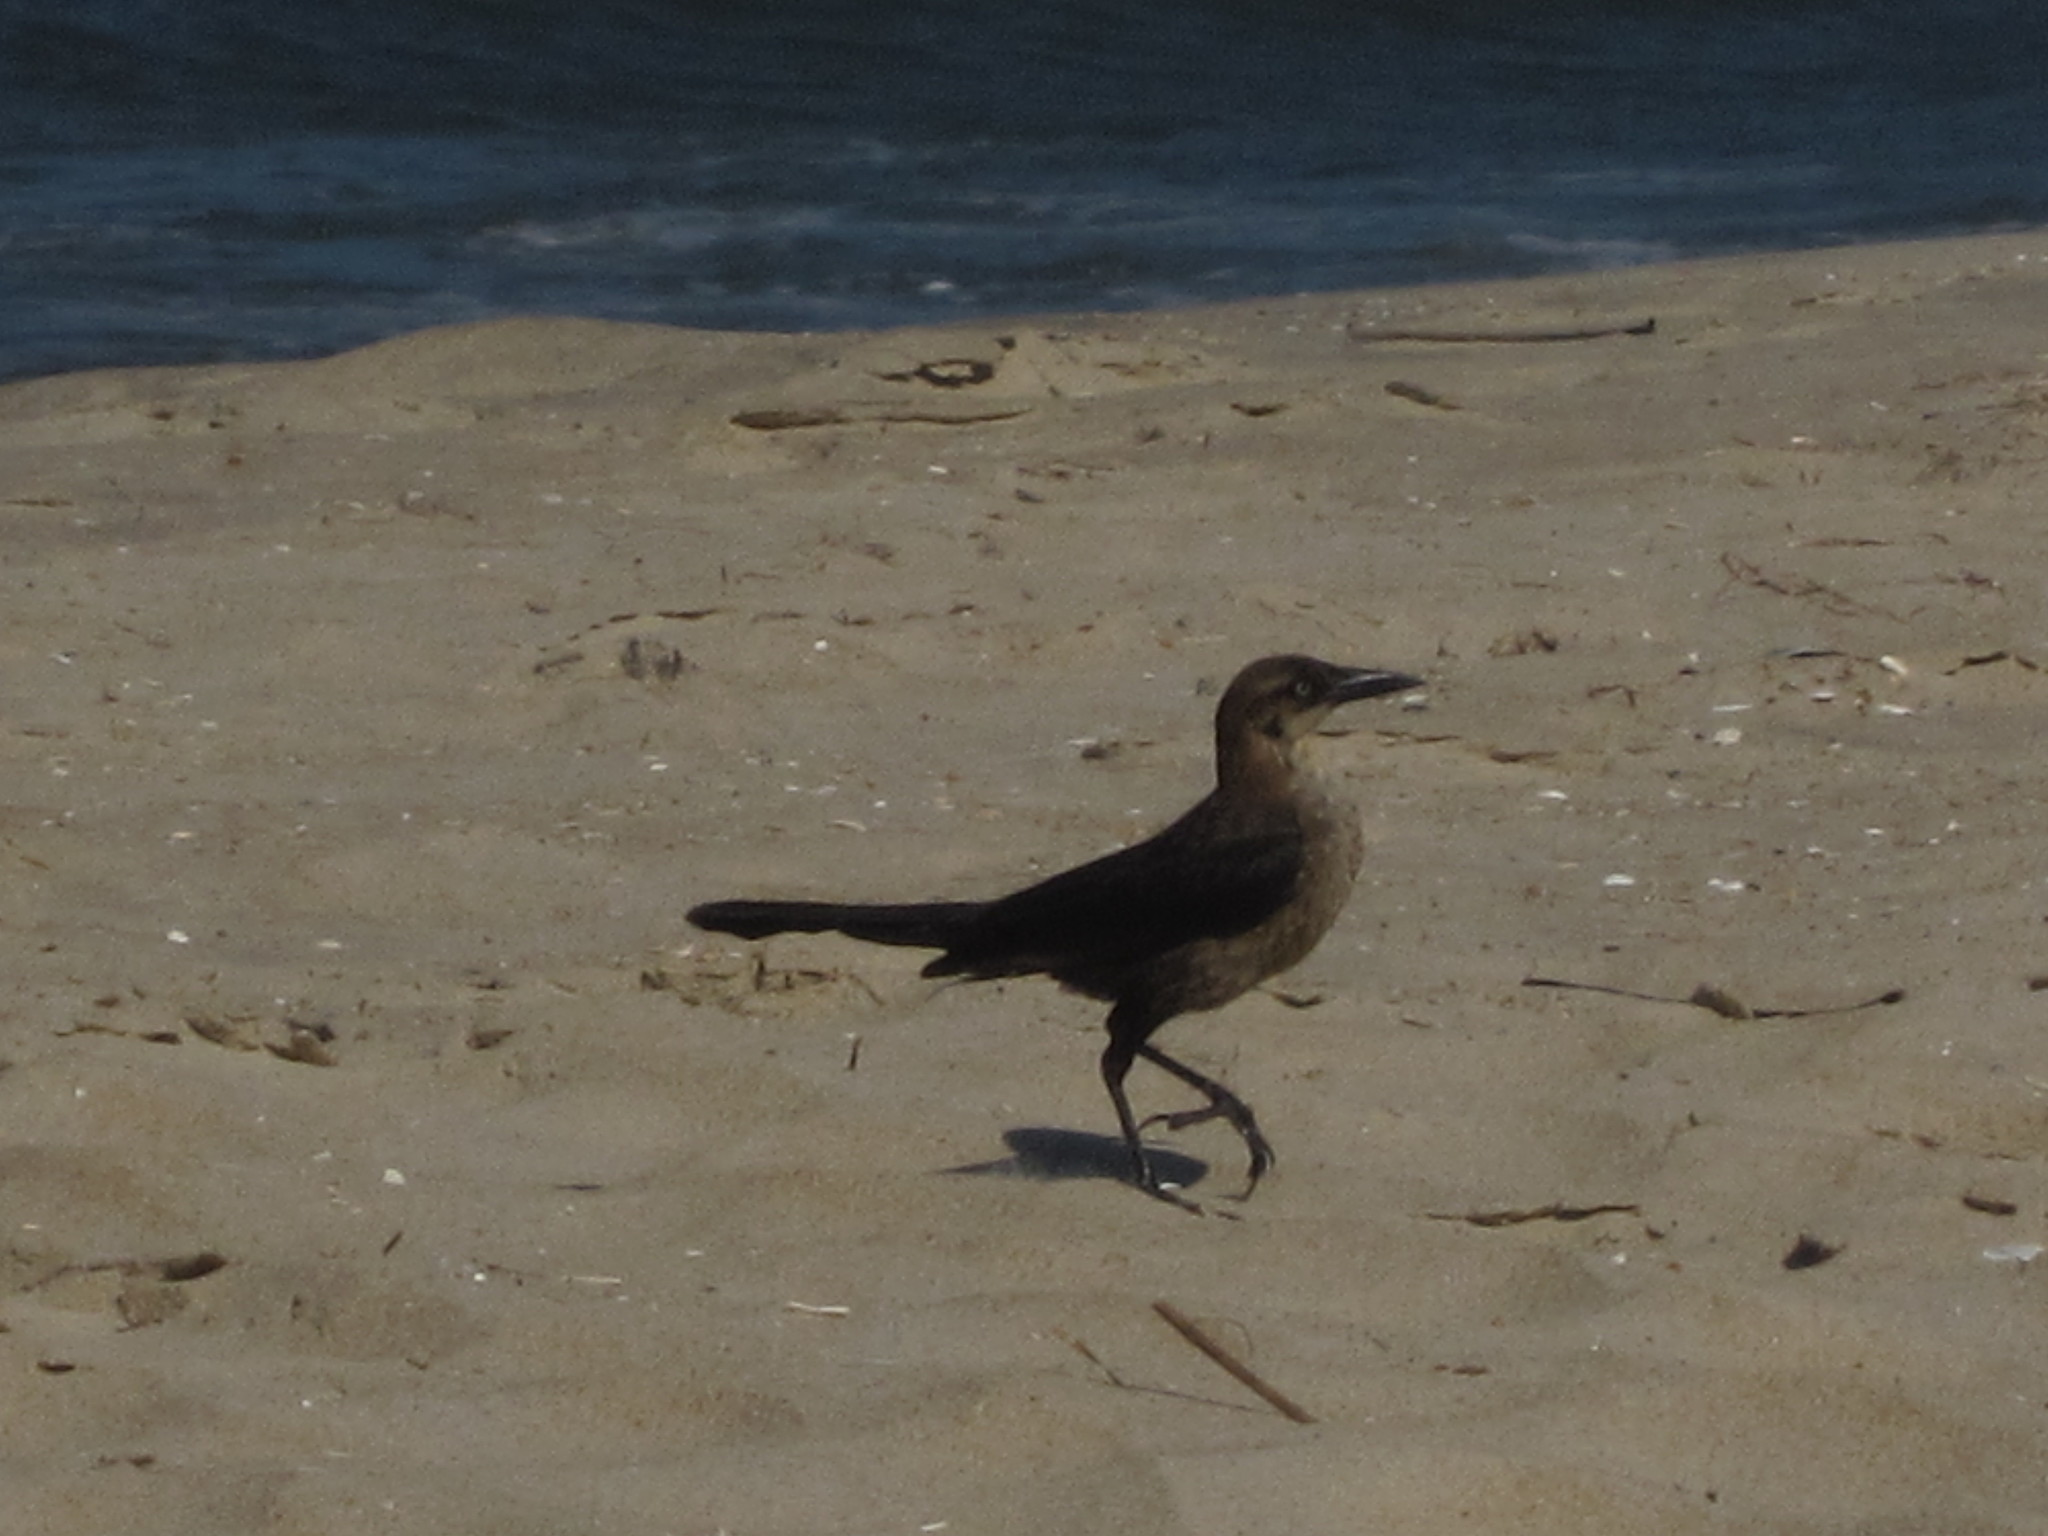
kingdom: Animalia
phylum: Chordata
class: Aves
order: Passeriformes
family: Icteridae
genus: Quiscalus
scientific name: Quiscalus major
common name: Boat-tailed grackle
